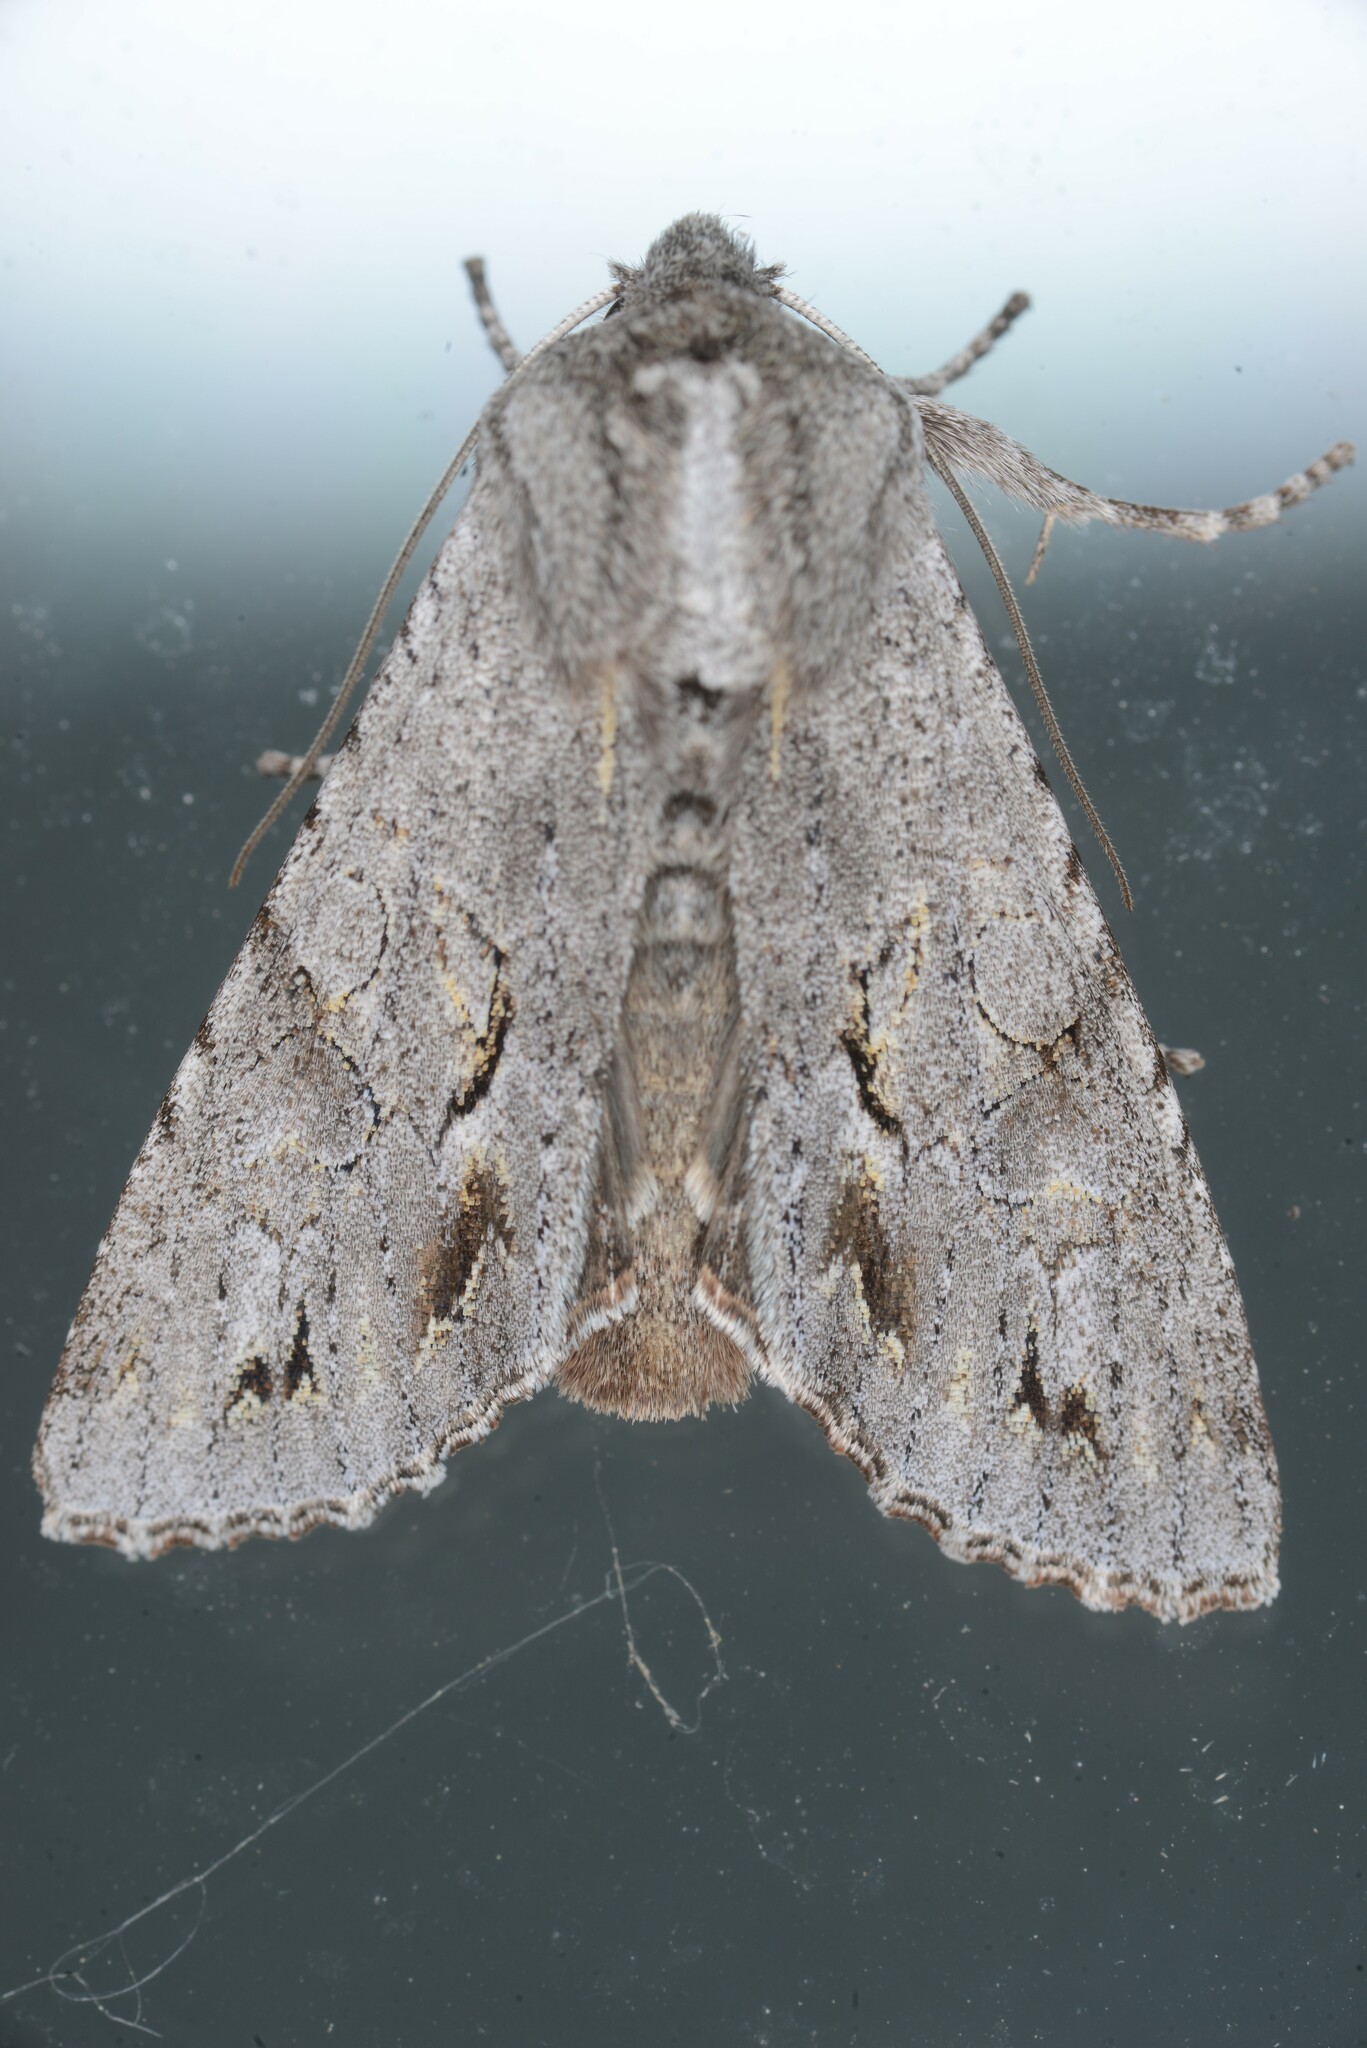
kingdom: Animalia
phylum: Arthropoda
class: Insecta
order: Lepidoptera
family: Noctuidae
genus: Ichneutica
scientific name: Ichneutica
